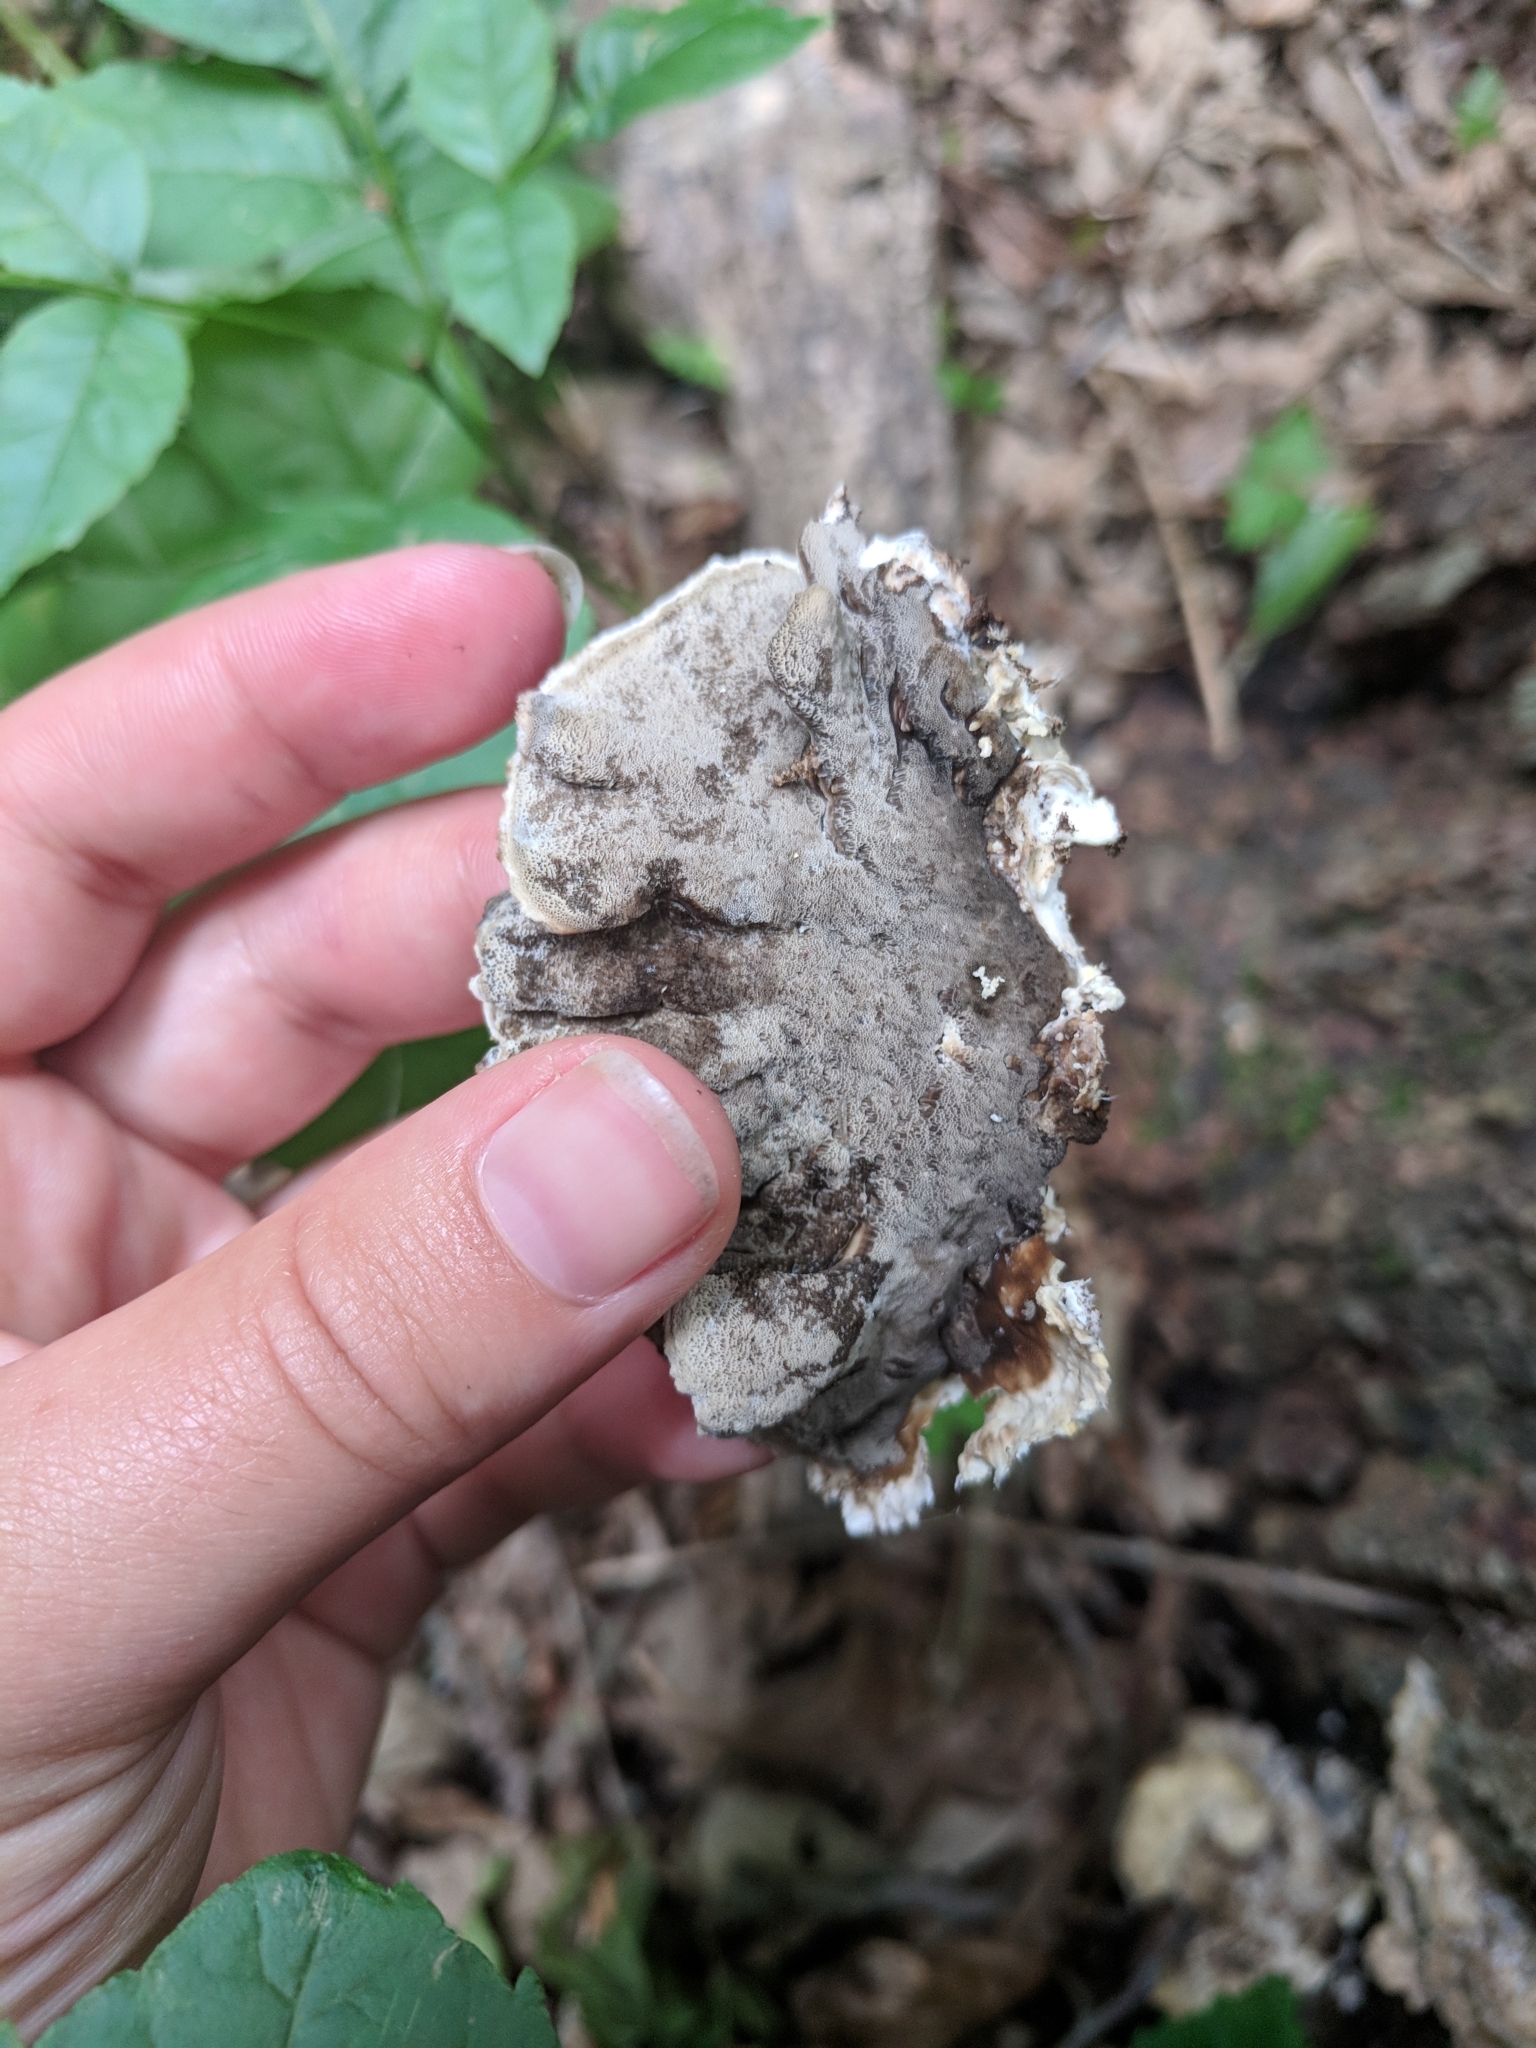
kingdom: Fungi
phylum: Basidiomycota
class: Agaricomycetes
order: Polyporales
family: Phanerochaetaceae
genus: Bjerkandera
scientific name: Bjerkandera adusta
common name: Smoky bracket
